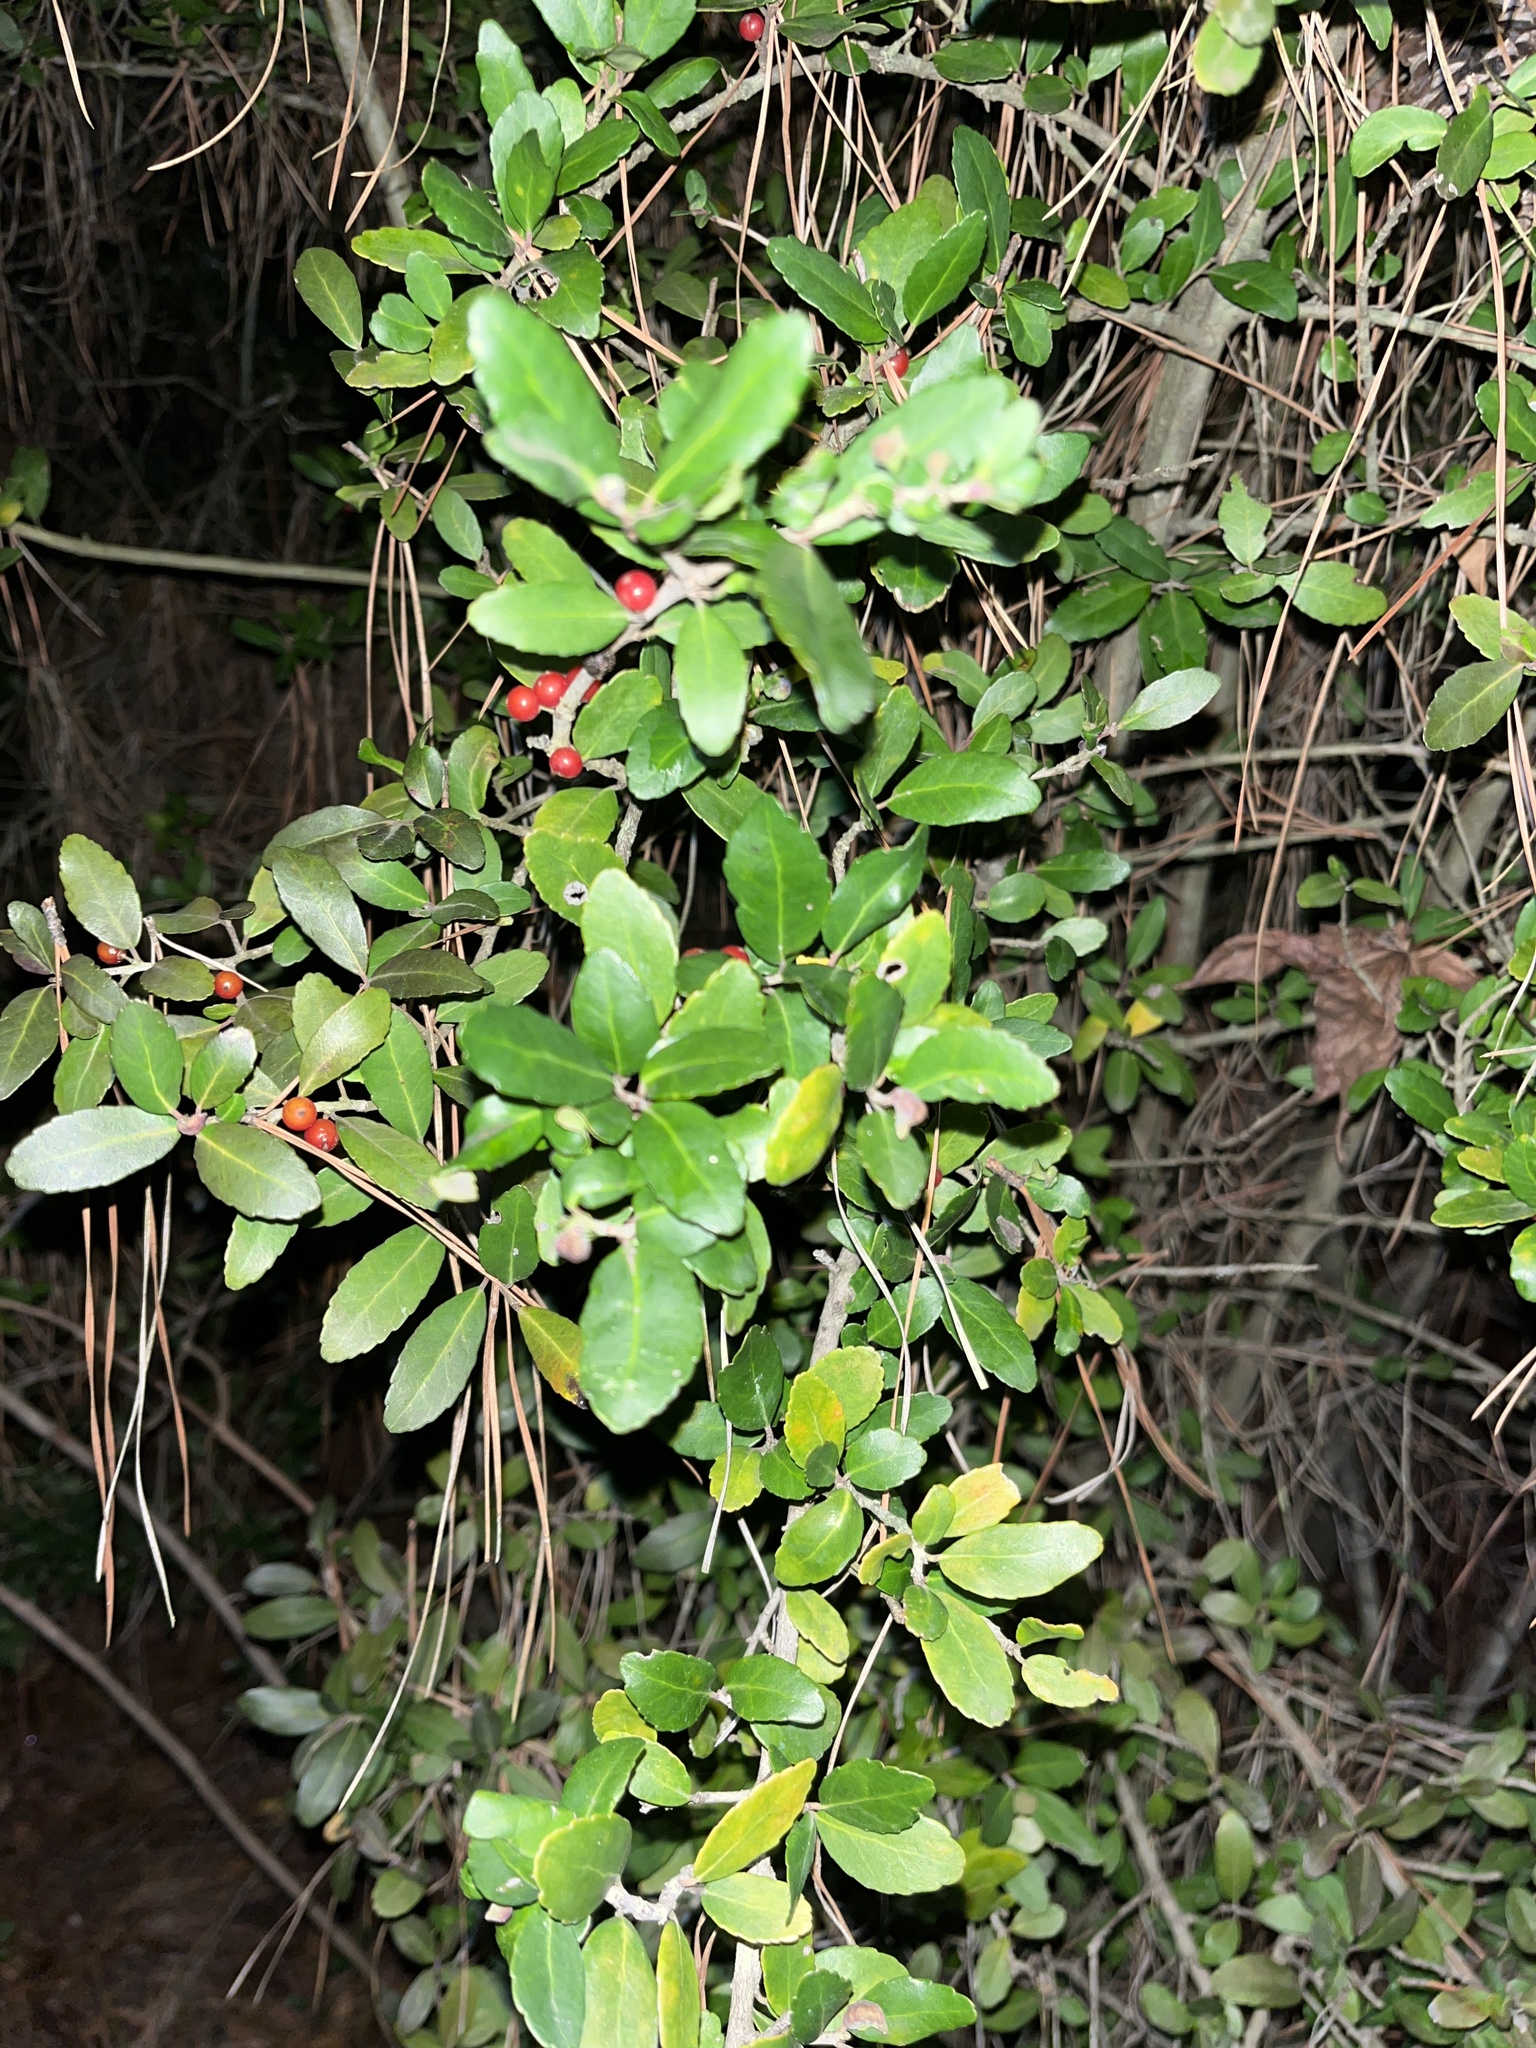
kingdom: Plantae
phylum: Tracheophyta
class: Magnoliopsida
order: Aquifoliales
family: Aquifoliaceae
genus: Ilex
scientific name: Ilex vomitoria
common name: Yaupon holly
